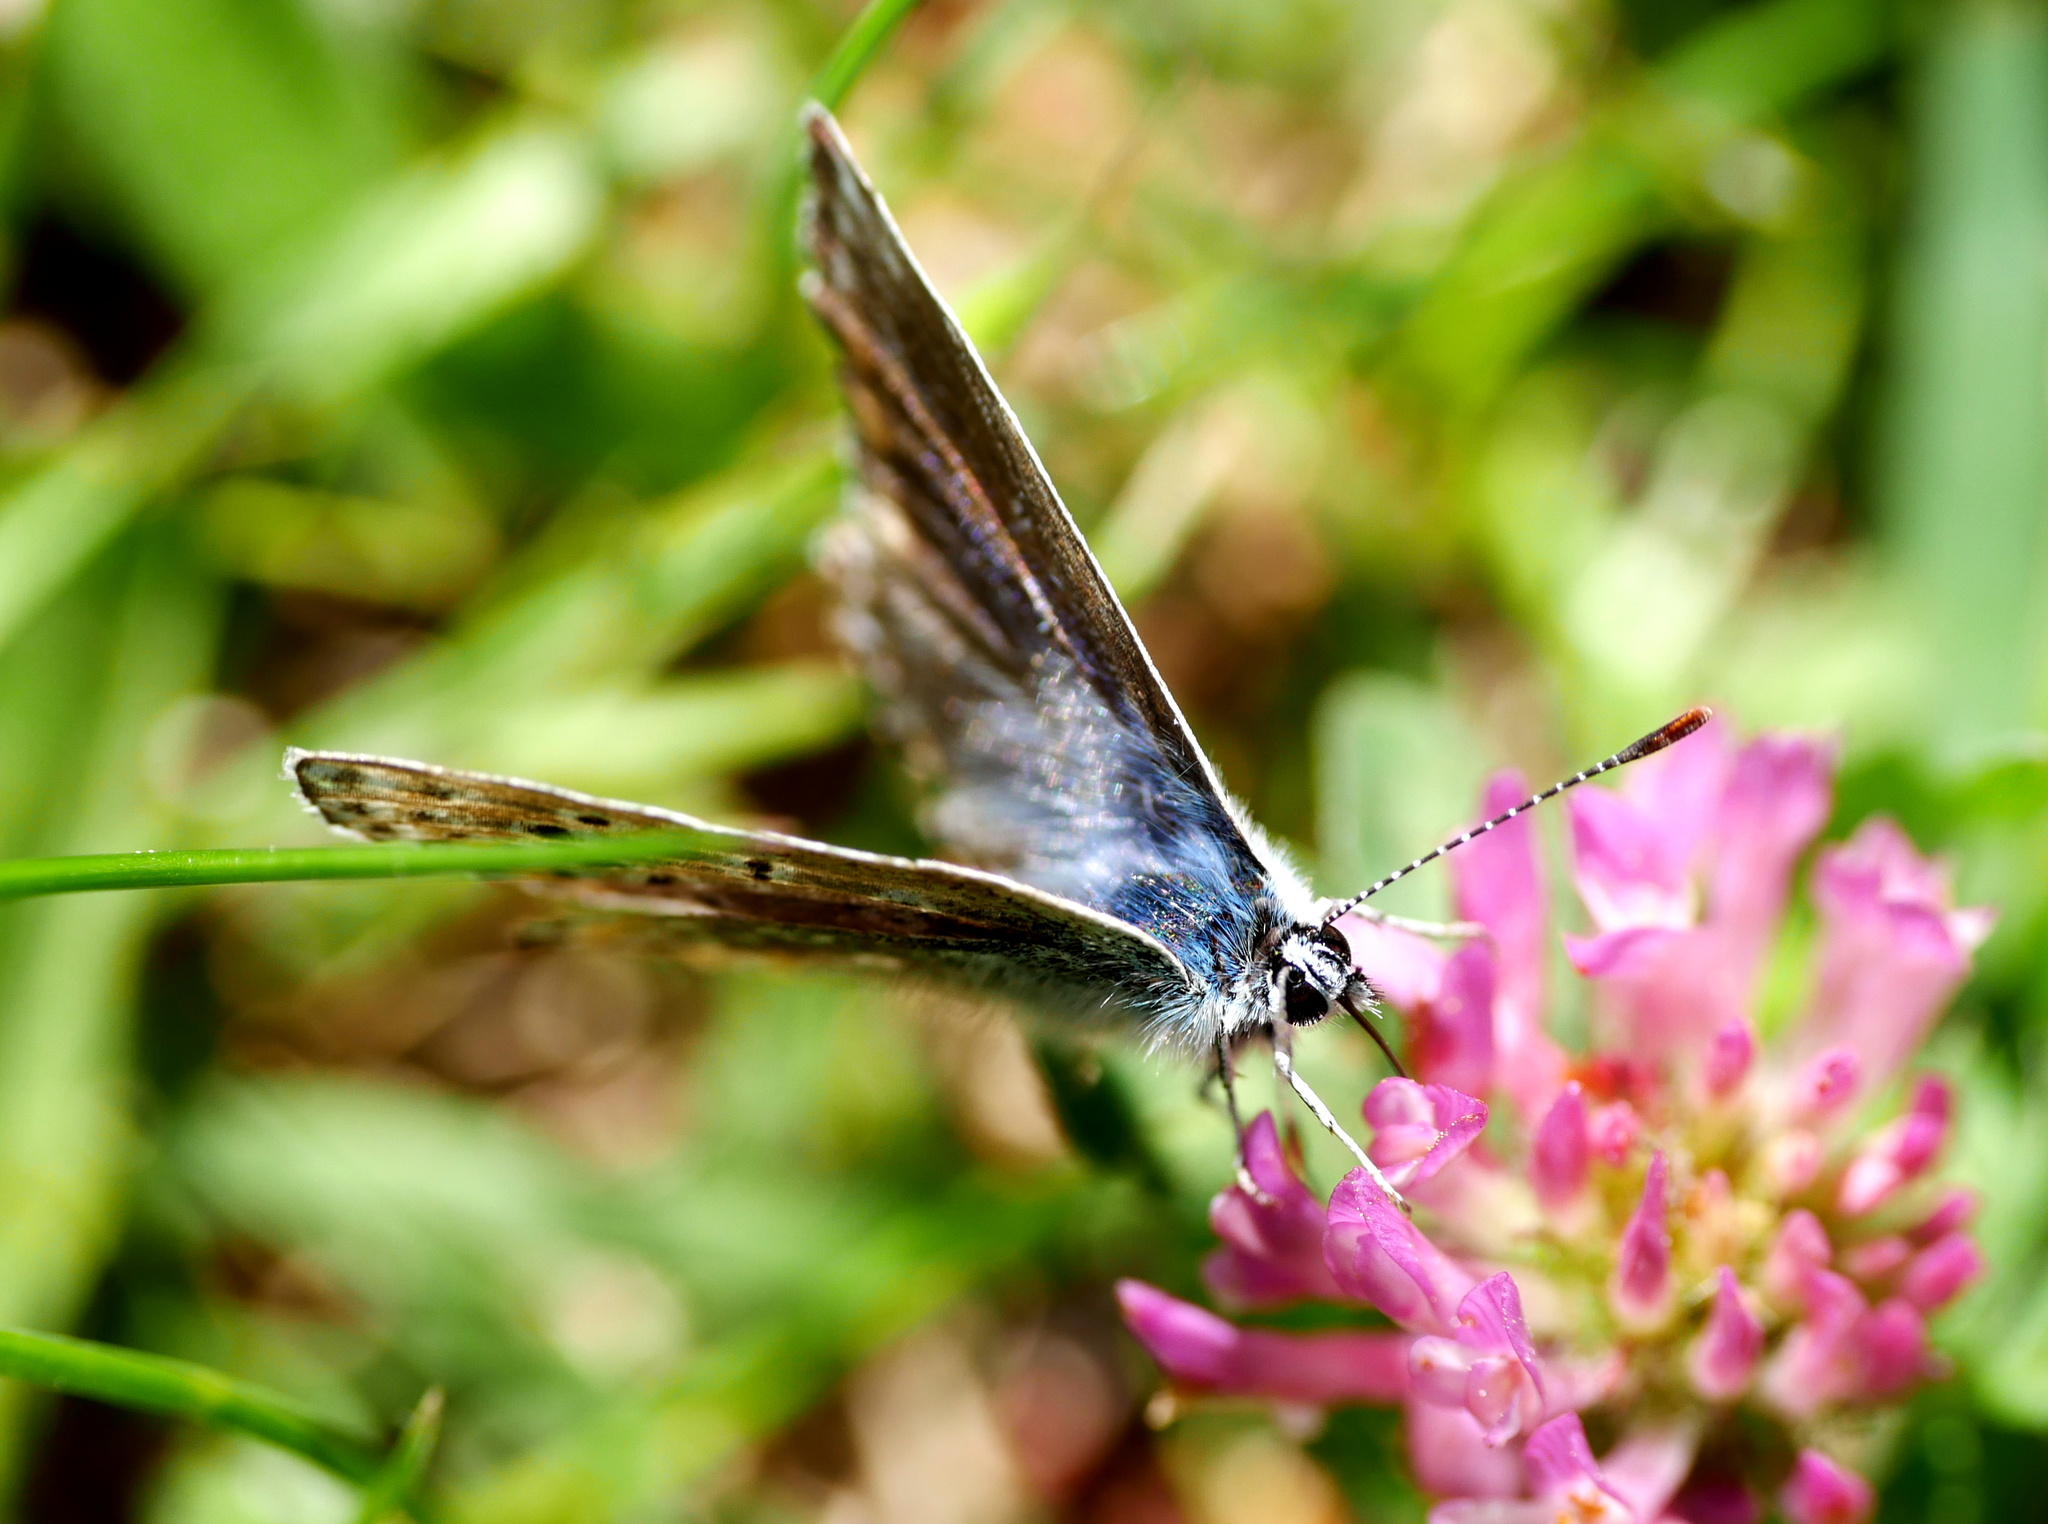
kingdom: Animalia
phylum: Arthropoda
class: Insecta
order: Lepidoptera
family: Lycaenidae
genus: Polyommatus
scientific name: Polyommatus icarus
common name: Common blue
